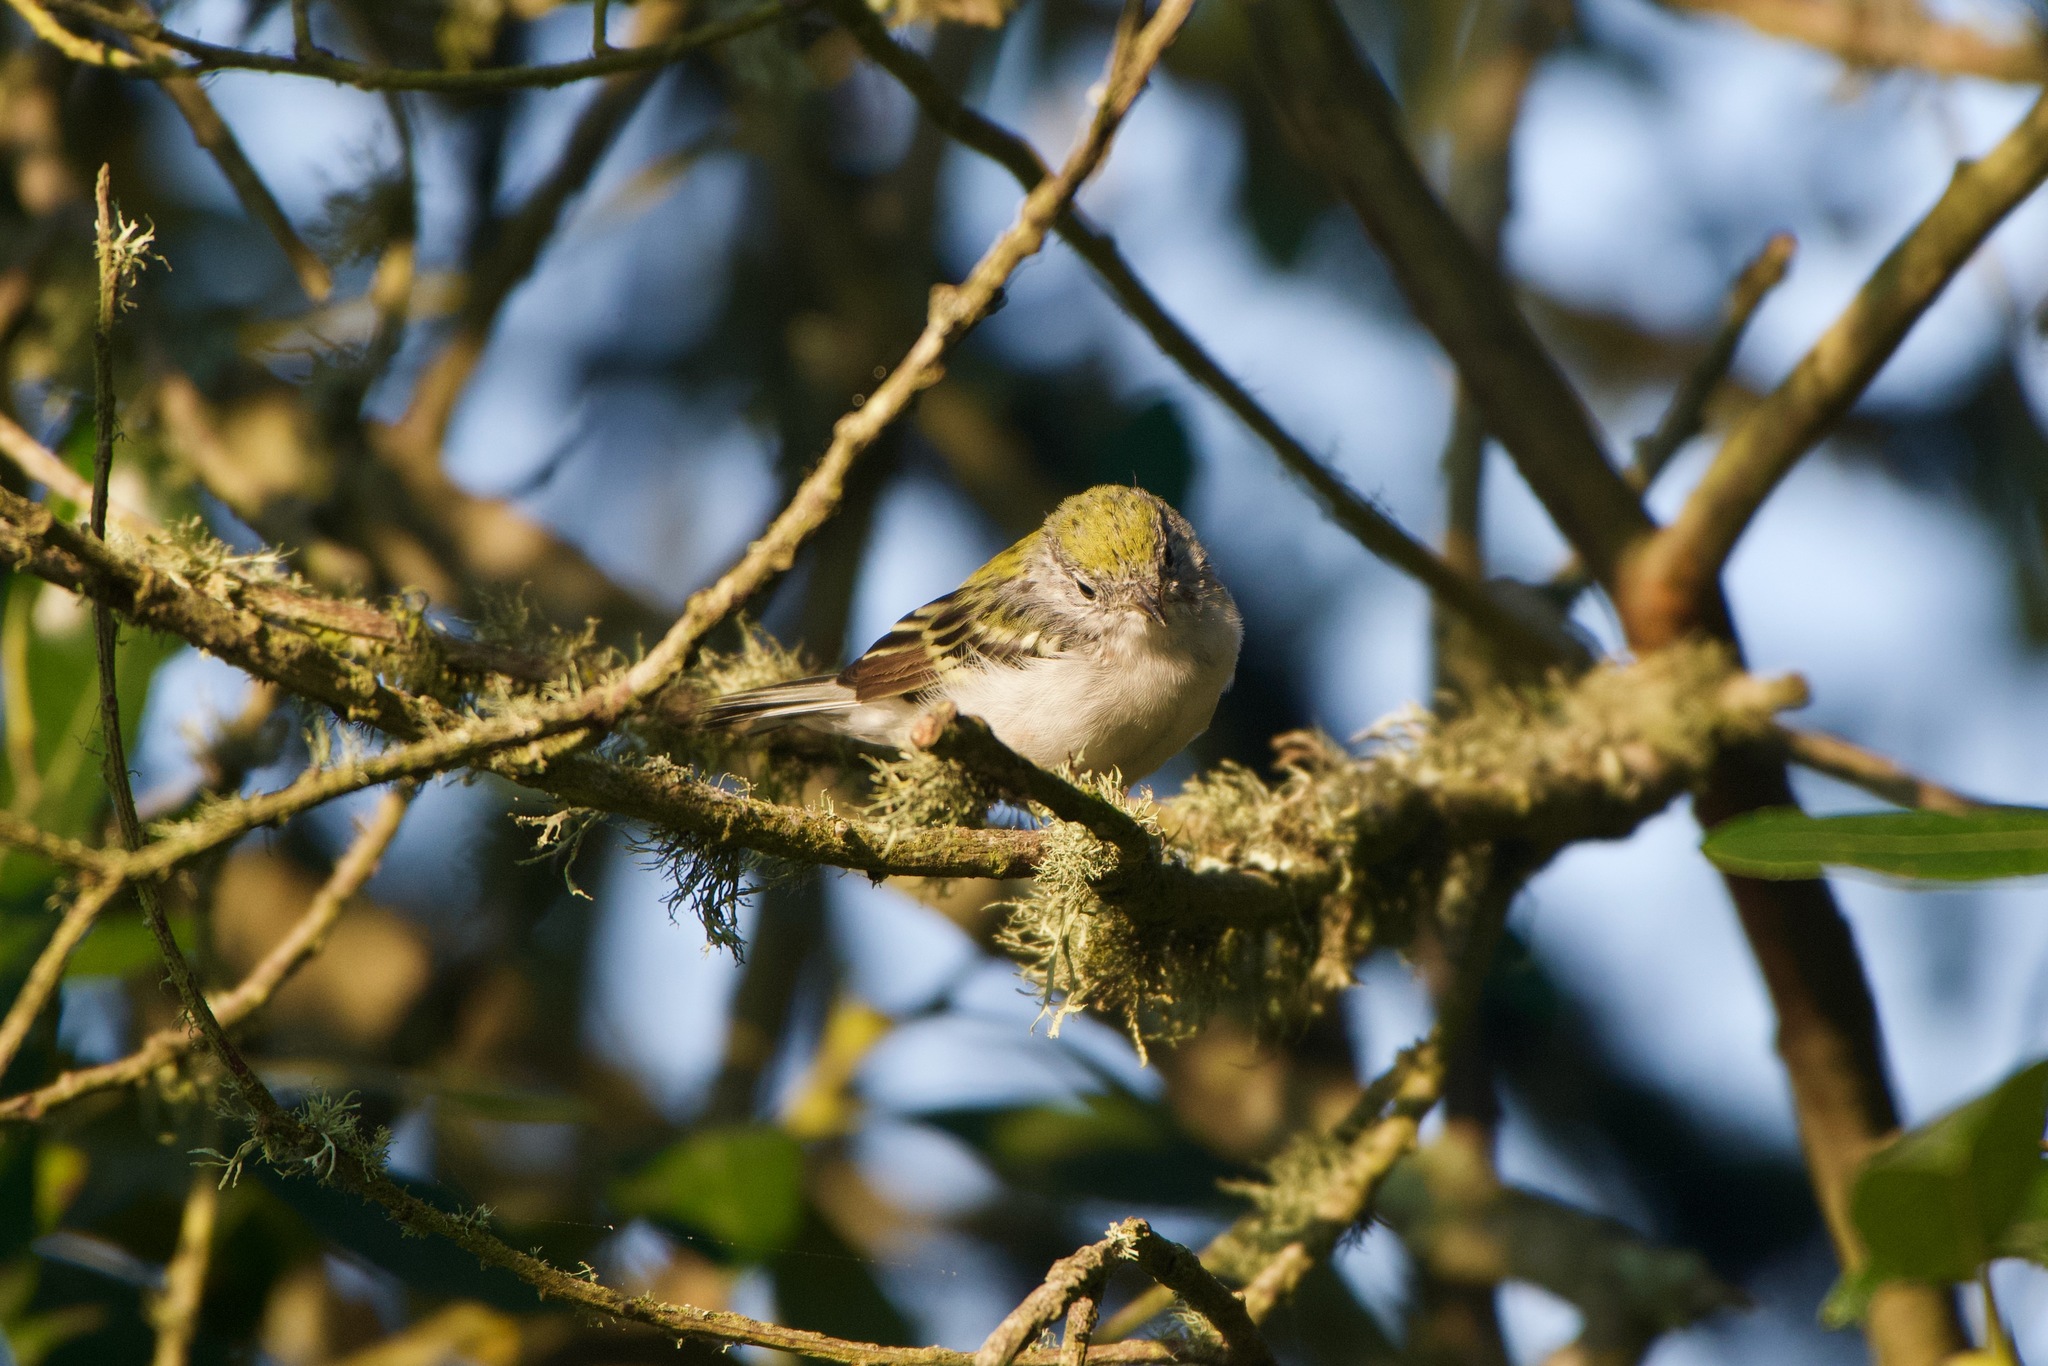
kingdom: Animalia
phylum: Chordata
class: Aves
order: Passeriformes
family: Parulidae
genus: Setophaga
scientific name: Setophaga pensylvanica
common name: Chestnut-sided warbler
